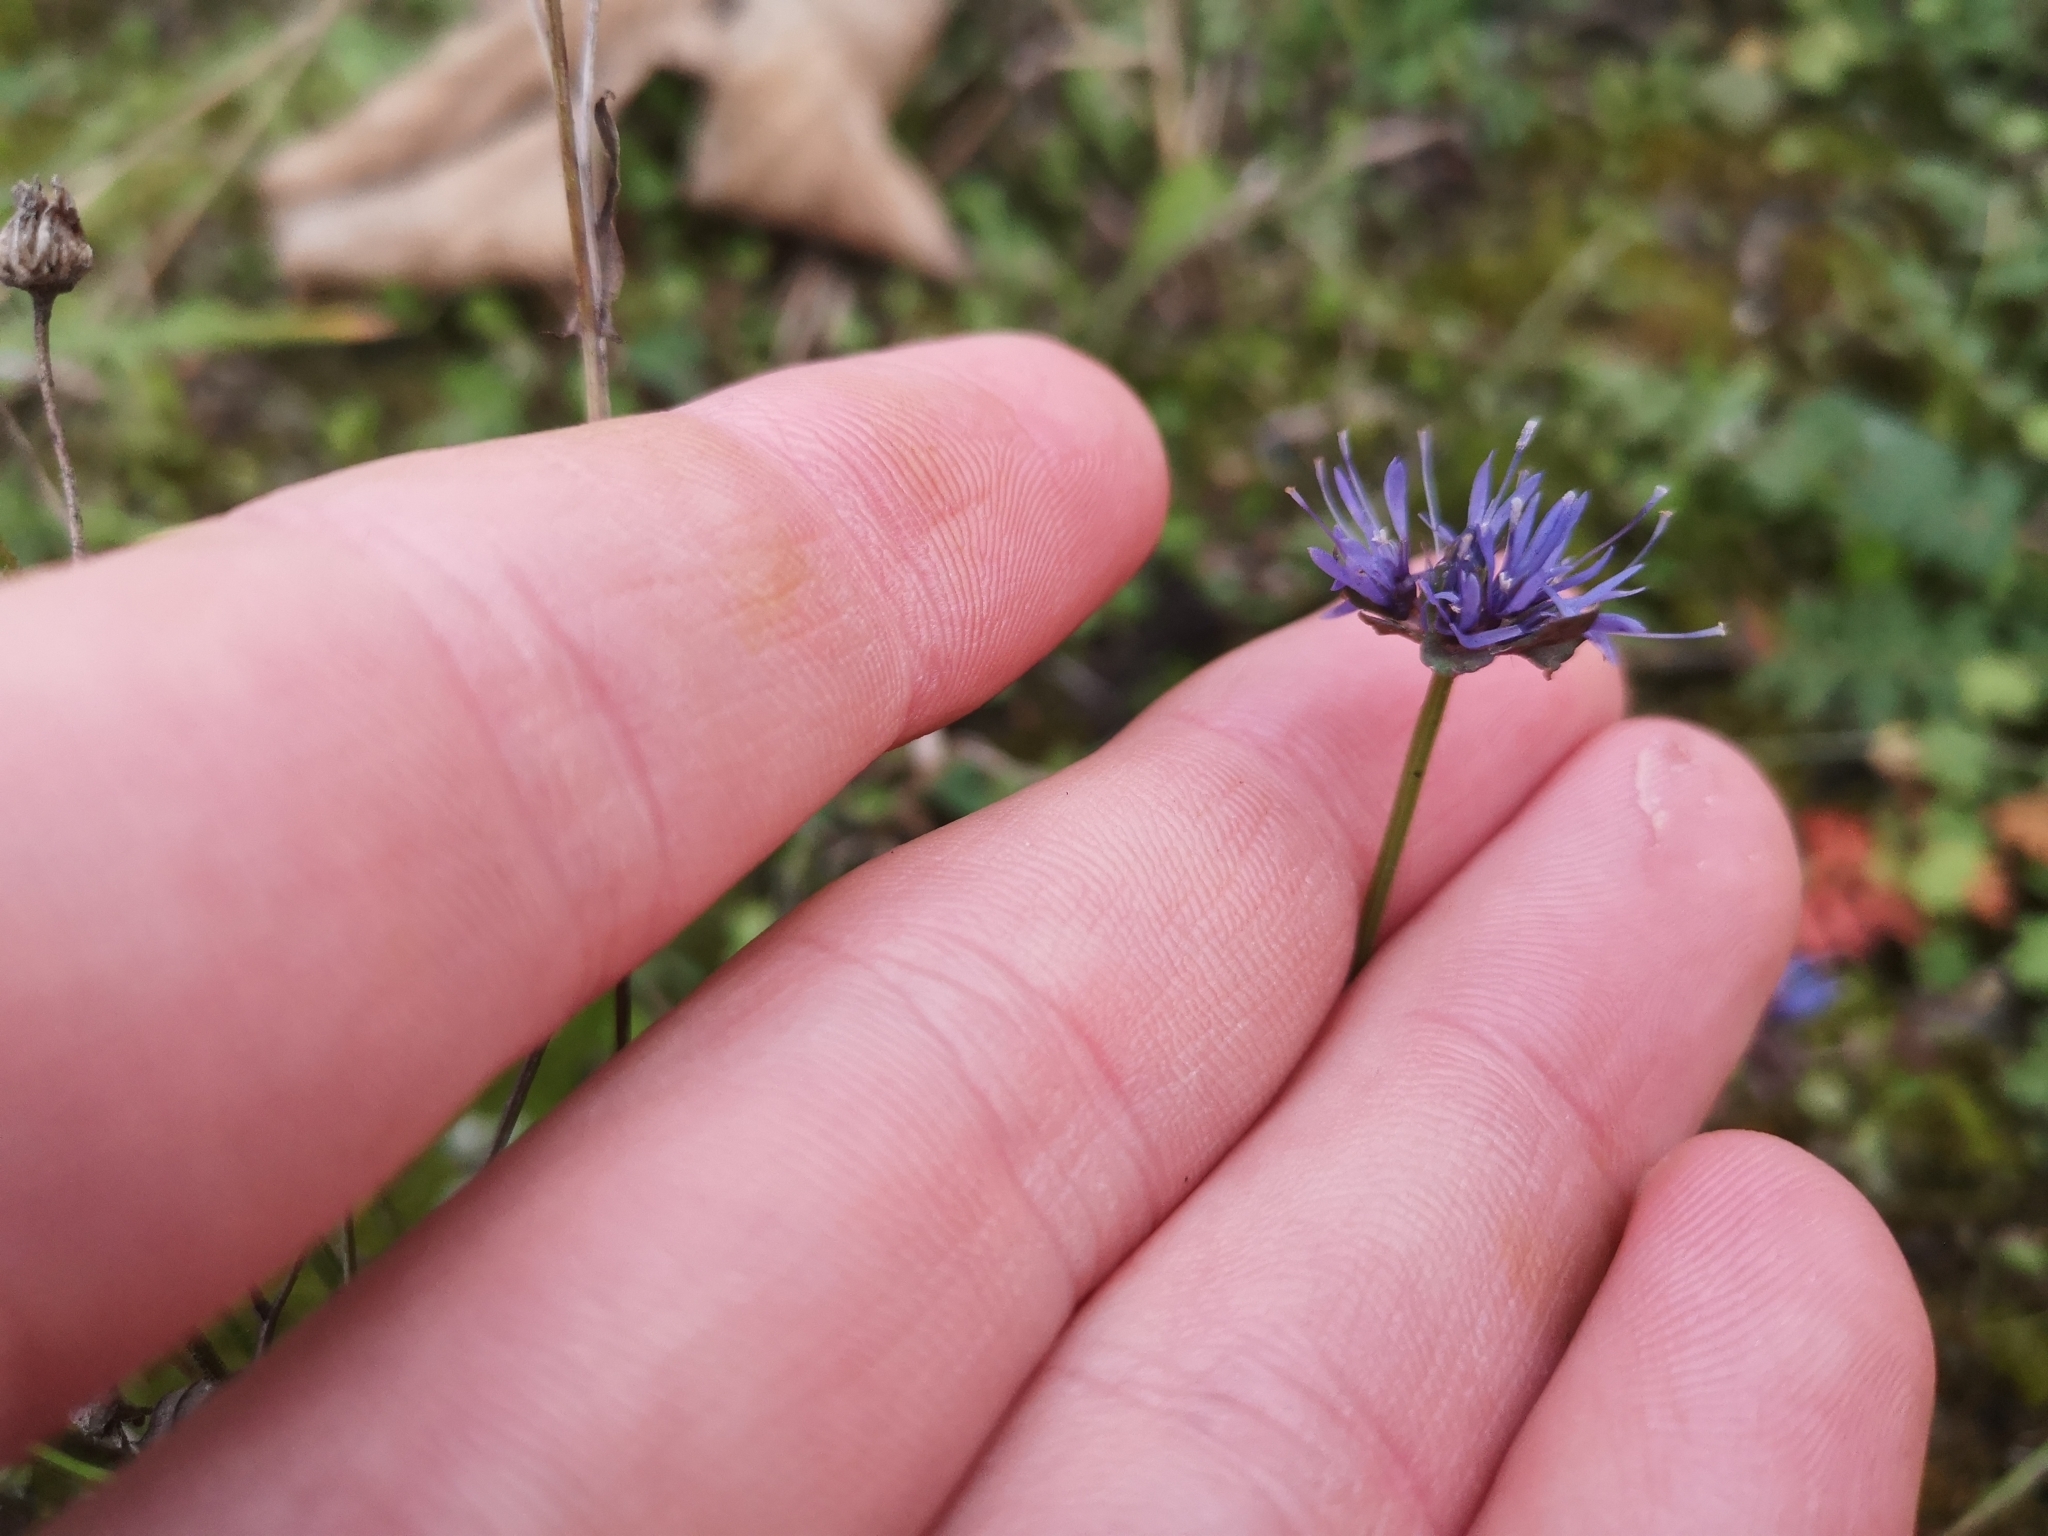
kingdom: Plantae
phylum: Tracheophyta
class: Magnoliopsida
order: Asterales
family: Campanulaceae
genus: Jasione
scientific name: Jasione montana
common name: Sheep's-bit
